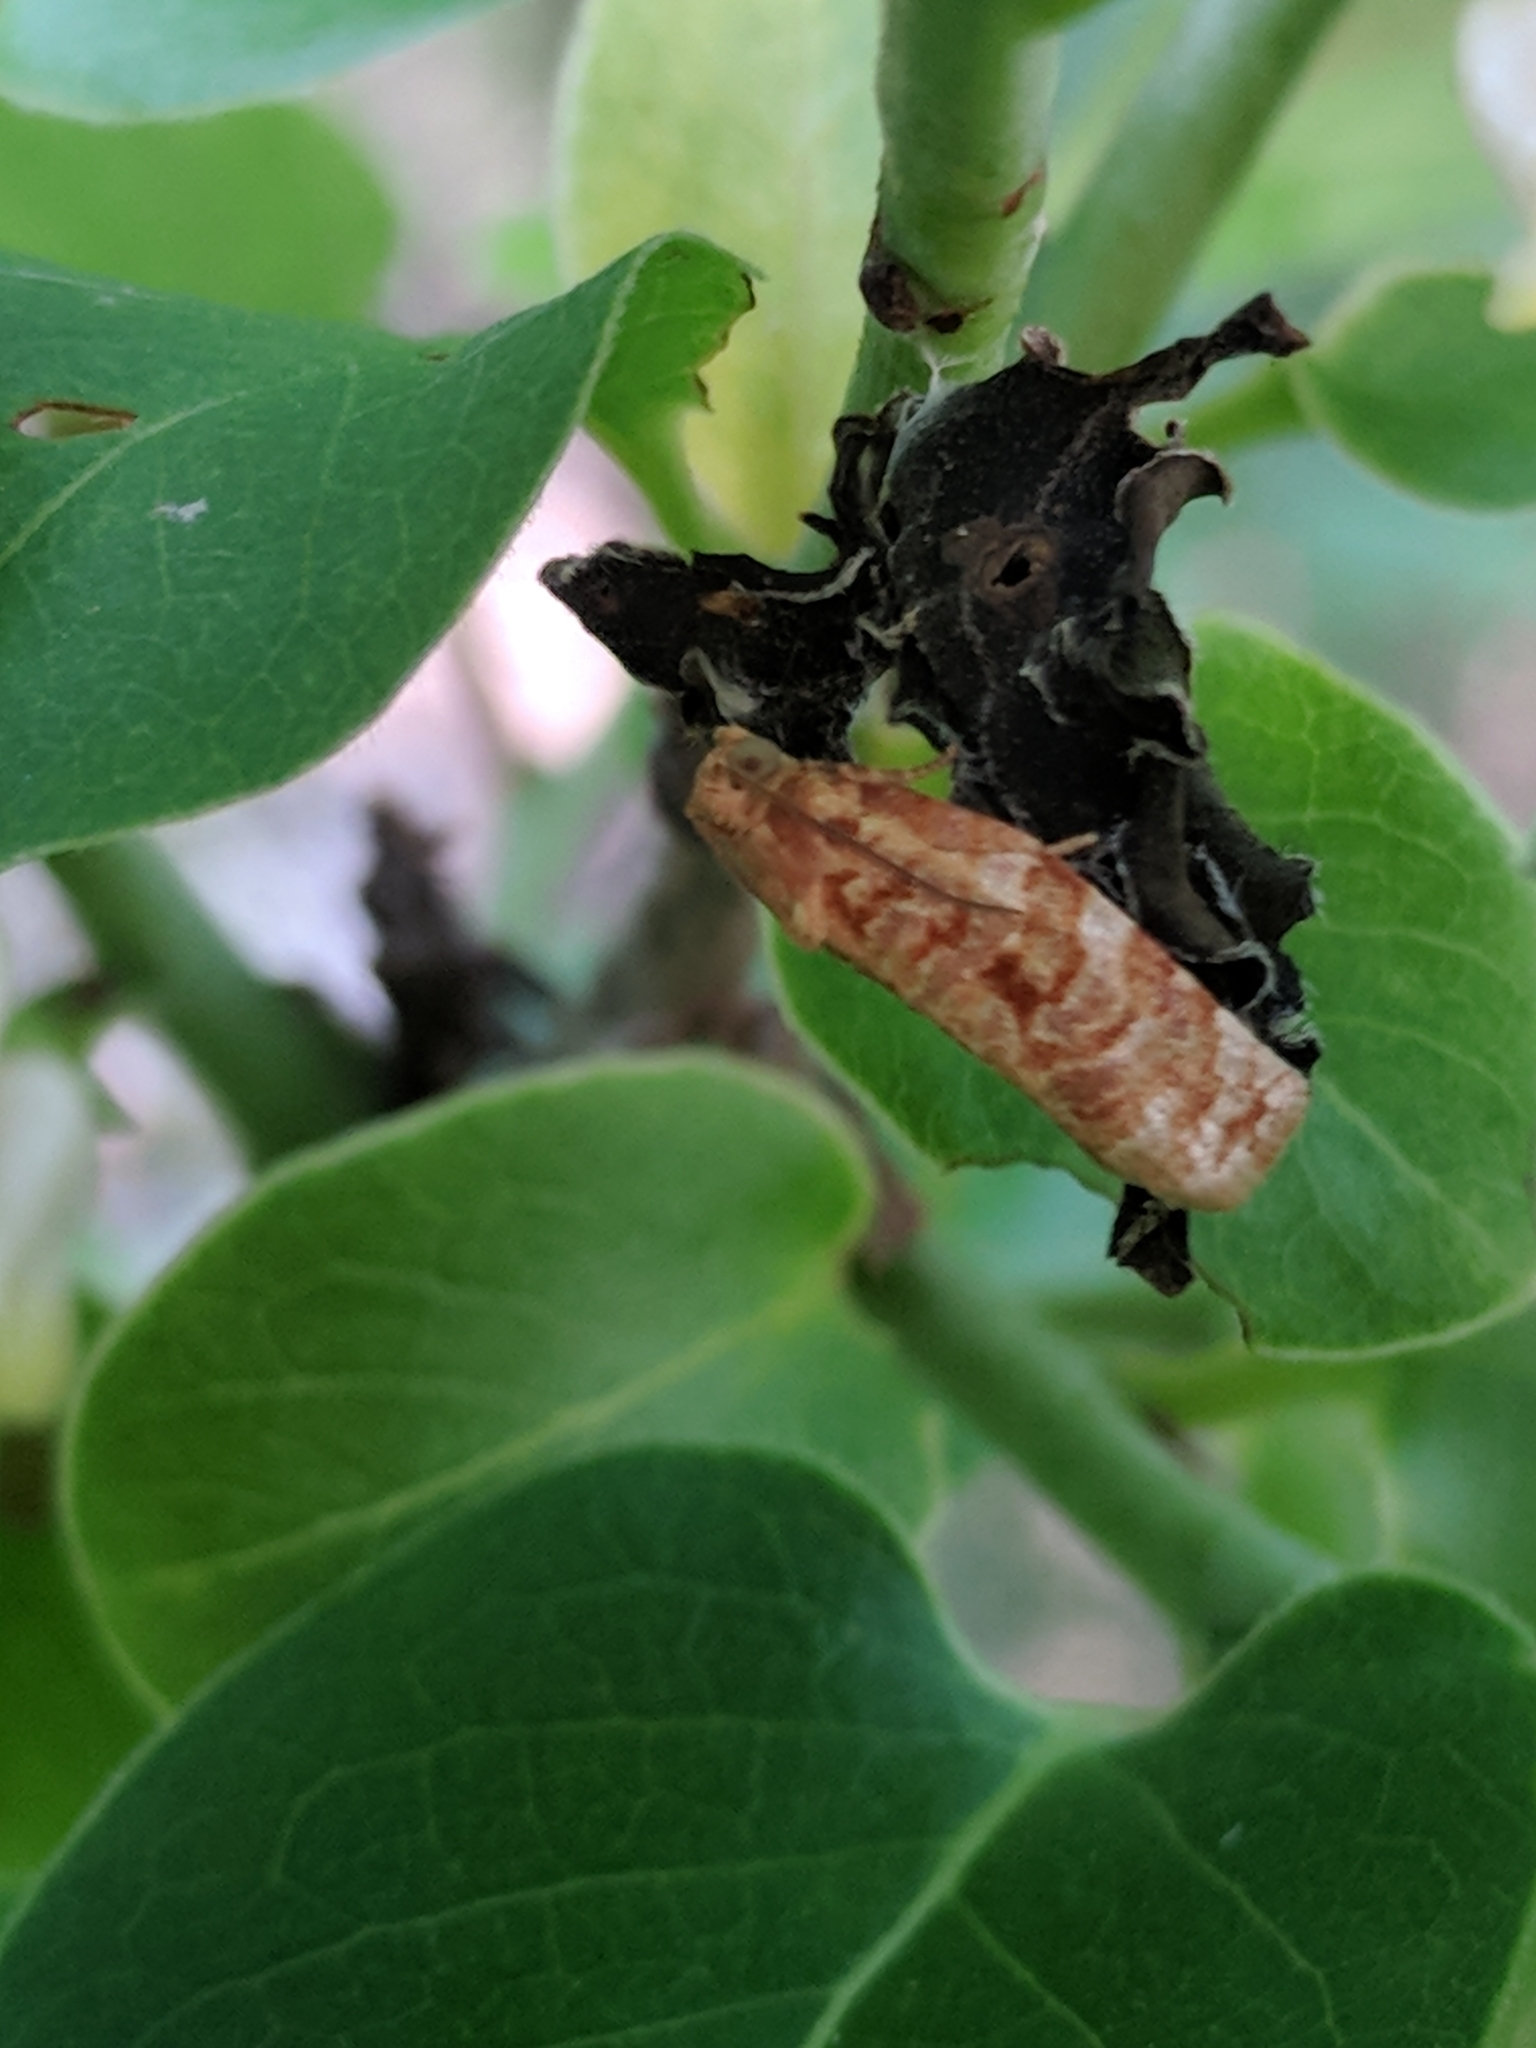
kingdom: Animalia
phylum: Arthropoda
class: Insecta
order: Lepidoptera
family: Tortricidae
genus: Archips
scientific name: Archips georgiana
